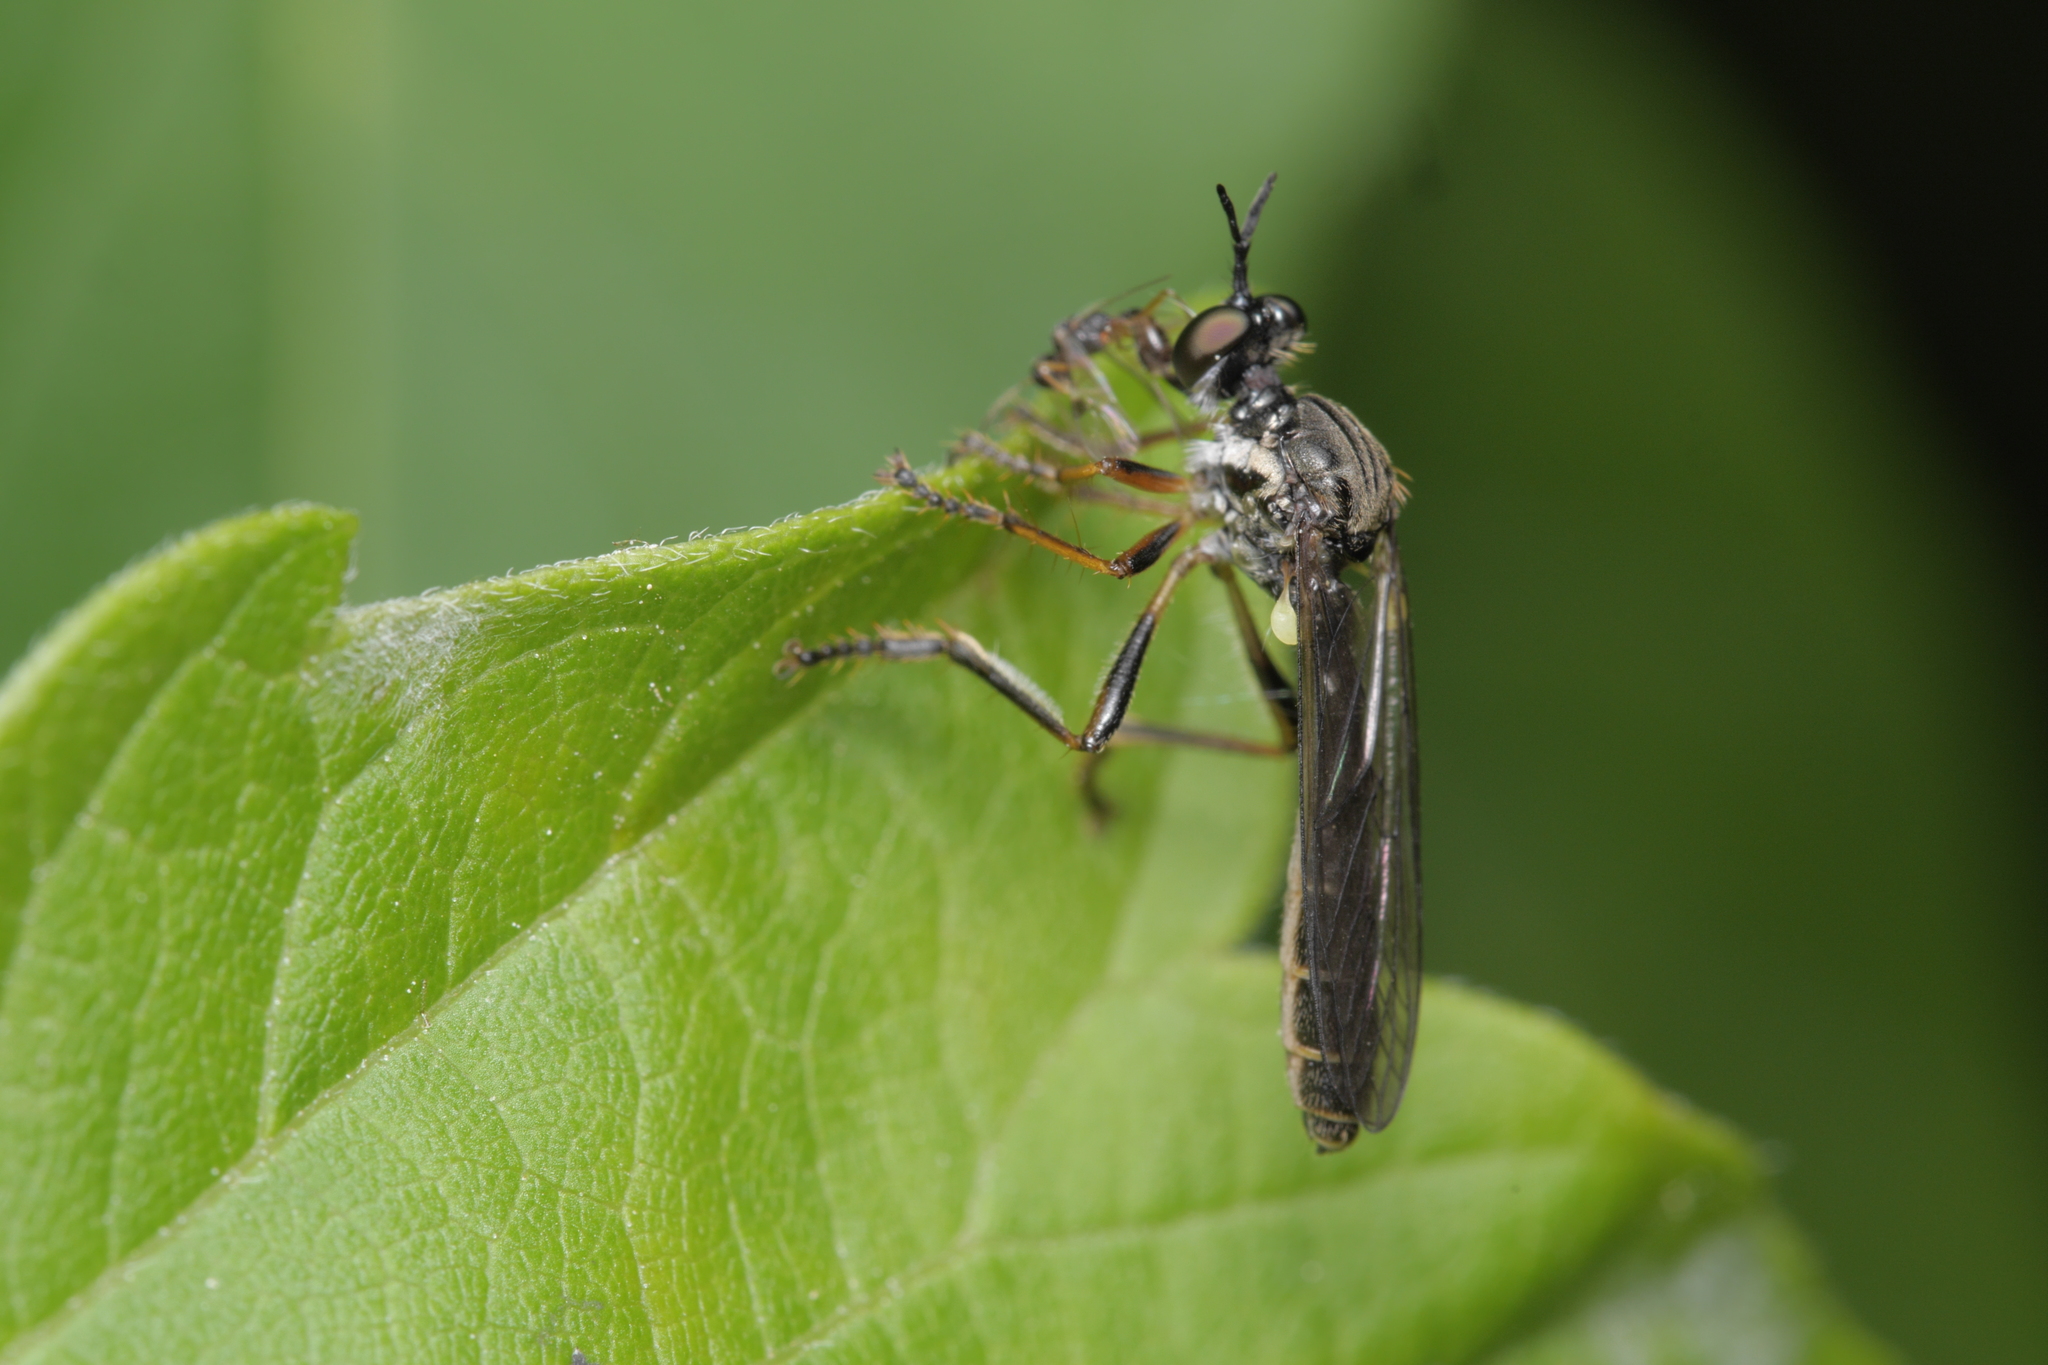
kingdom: Animalia
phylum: Arthropoda
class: Insecta
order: Diptera
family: Asilidae
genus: Dioctria
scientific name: Dioctria hyalipennis
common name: Stripe-legged robberfly
